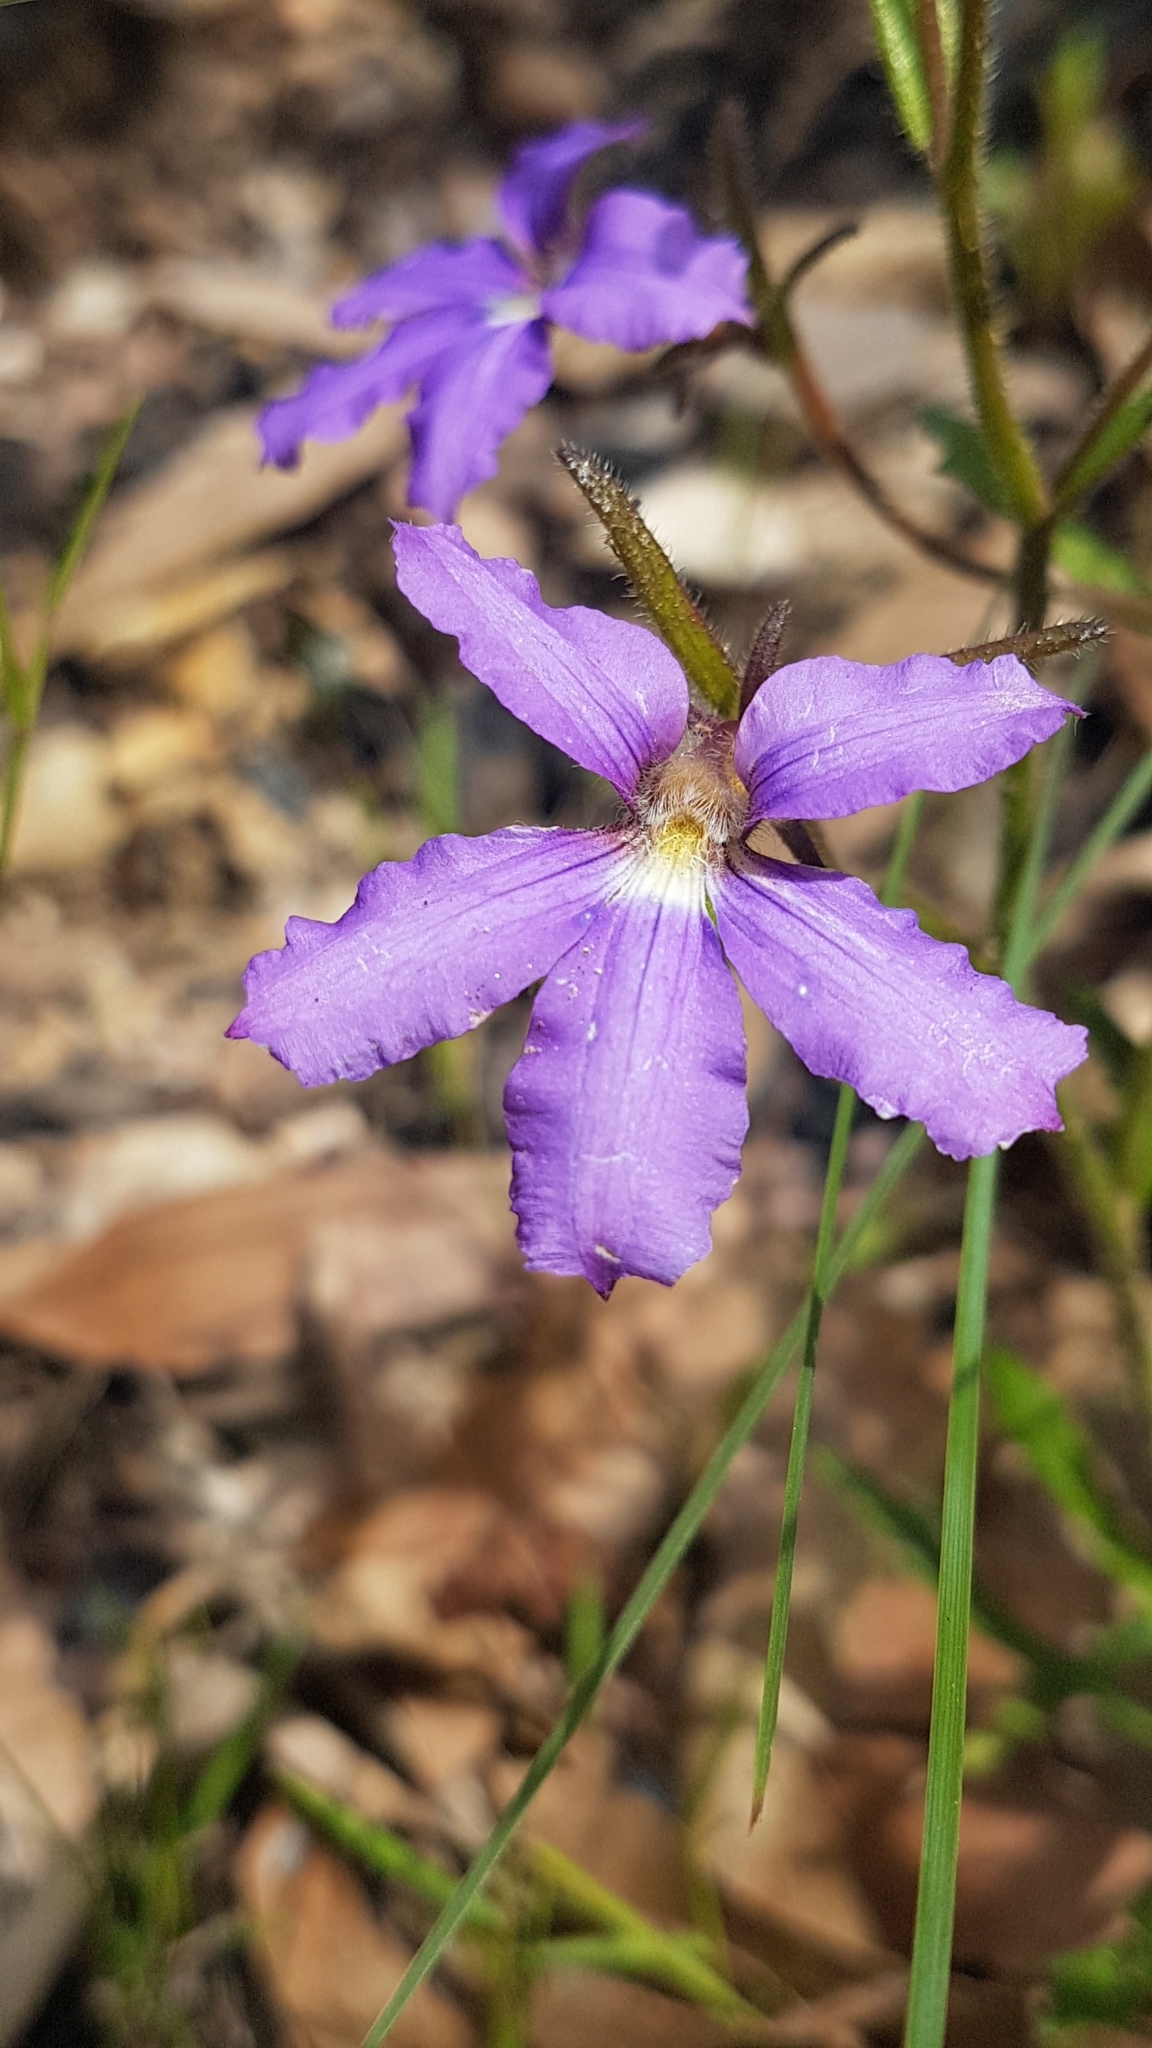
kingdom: Plantae
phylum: Tracheophyta
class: Magnoliopsida
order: Asterales
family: Goodeniaceae
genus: Scaevola
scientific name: Scaevola ramosissima
